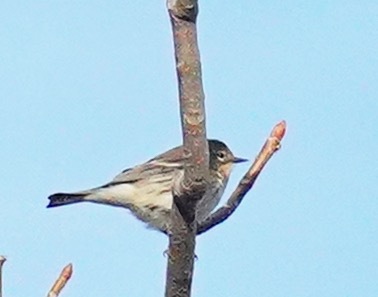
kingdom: Animalia
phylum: Chordata
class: Aves
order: Passeriformes
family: Parulidae
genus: Setophaga
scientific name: Setophaga auduboni
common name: Audubon's warbler
